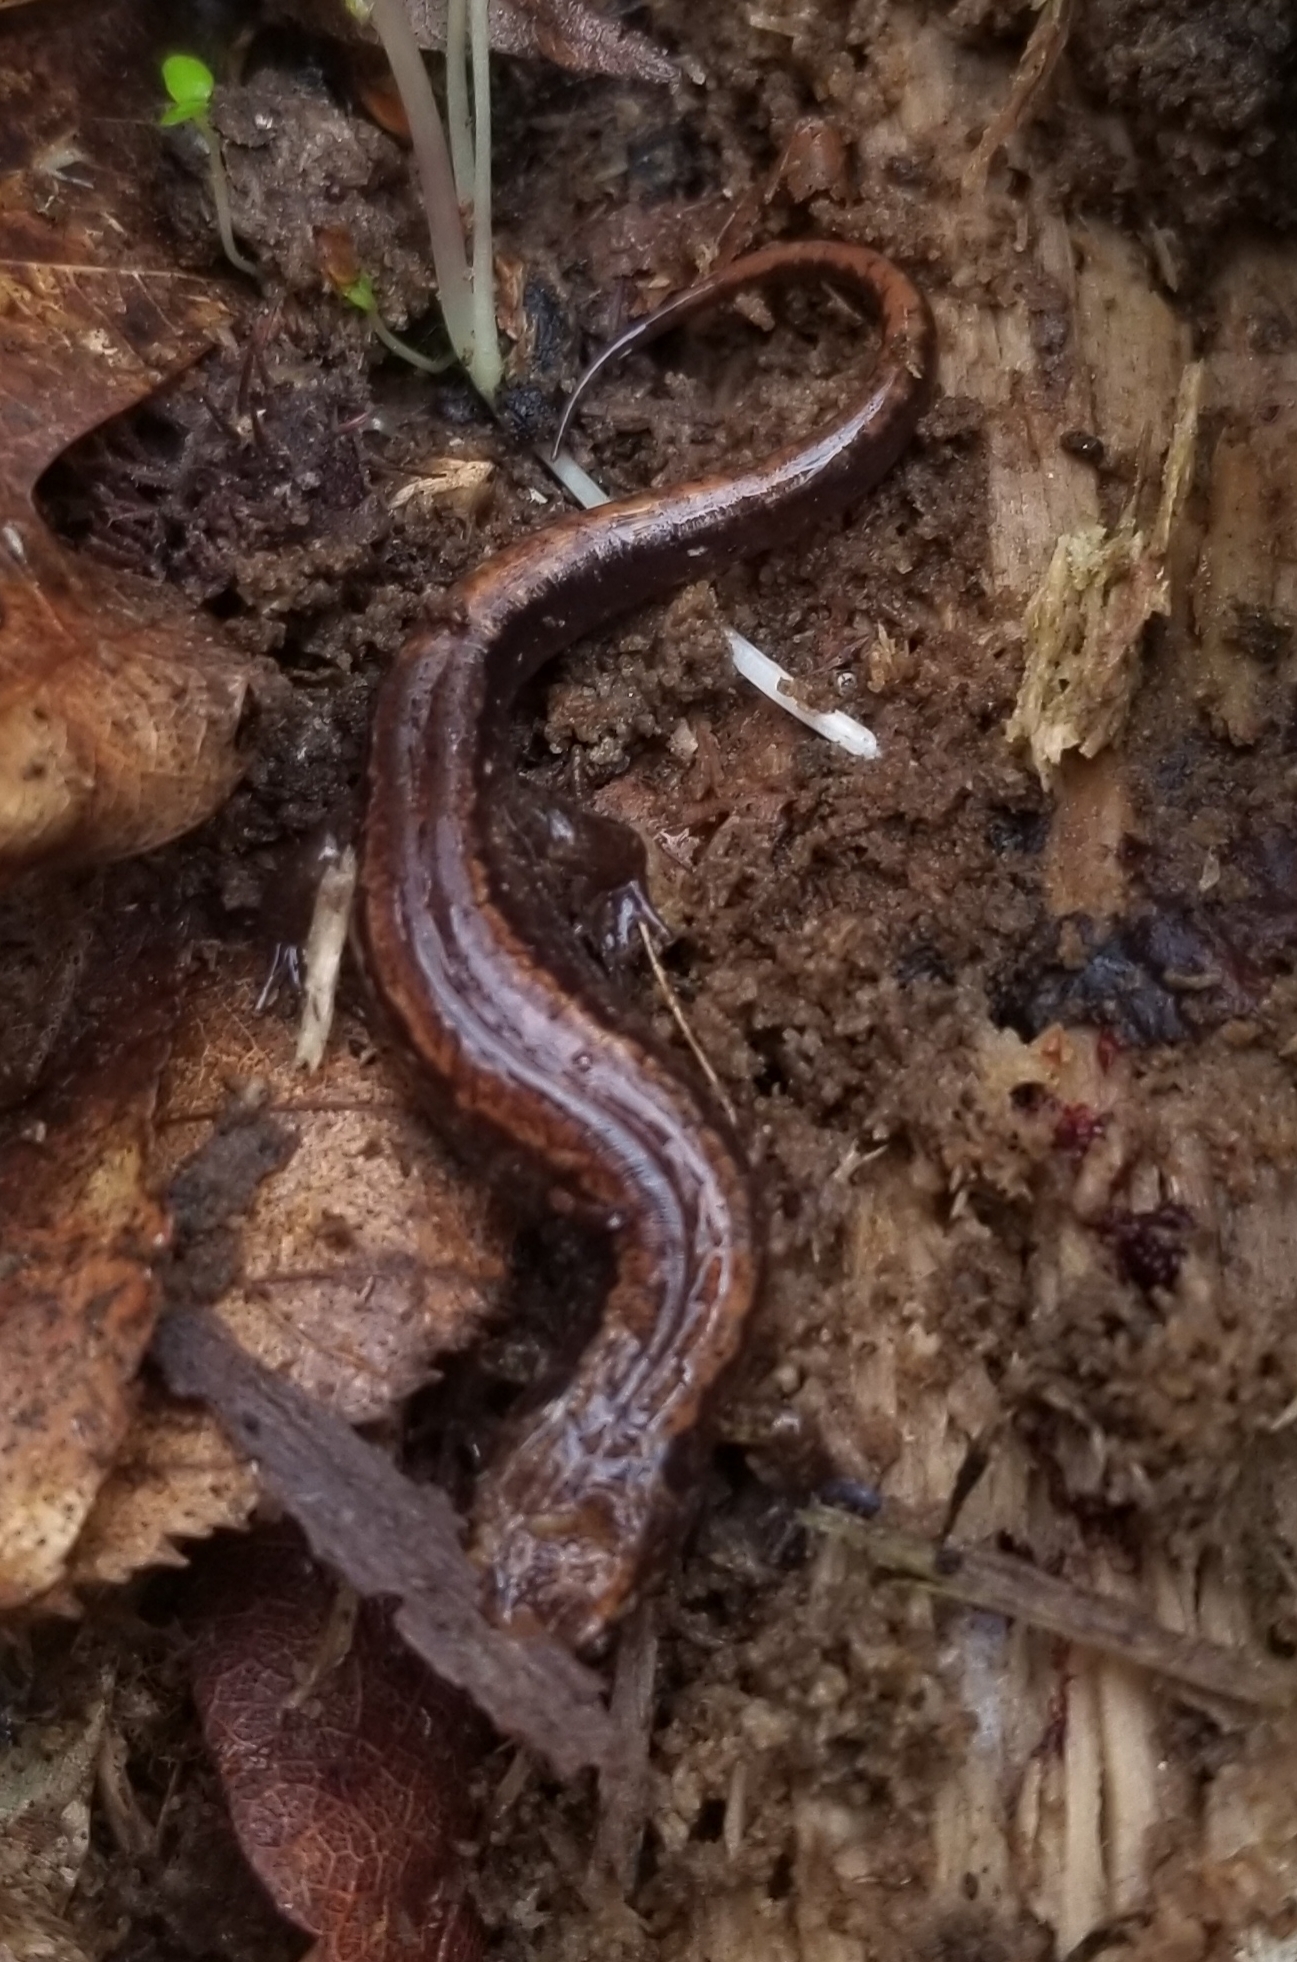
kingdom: Animalia
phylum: Chordata
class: Amphibia
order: Caudata
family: Plethodontidae
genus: Desmognathus
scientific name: Desmognathus carolinensis
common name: Carolina mountain dusky salamander
